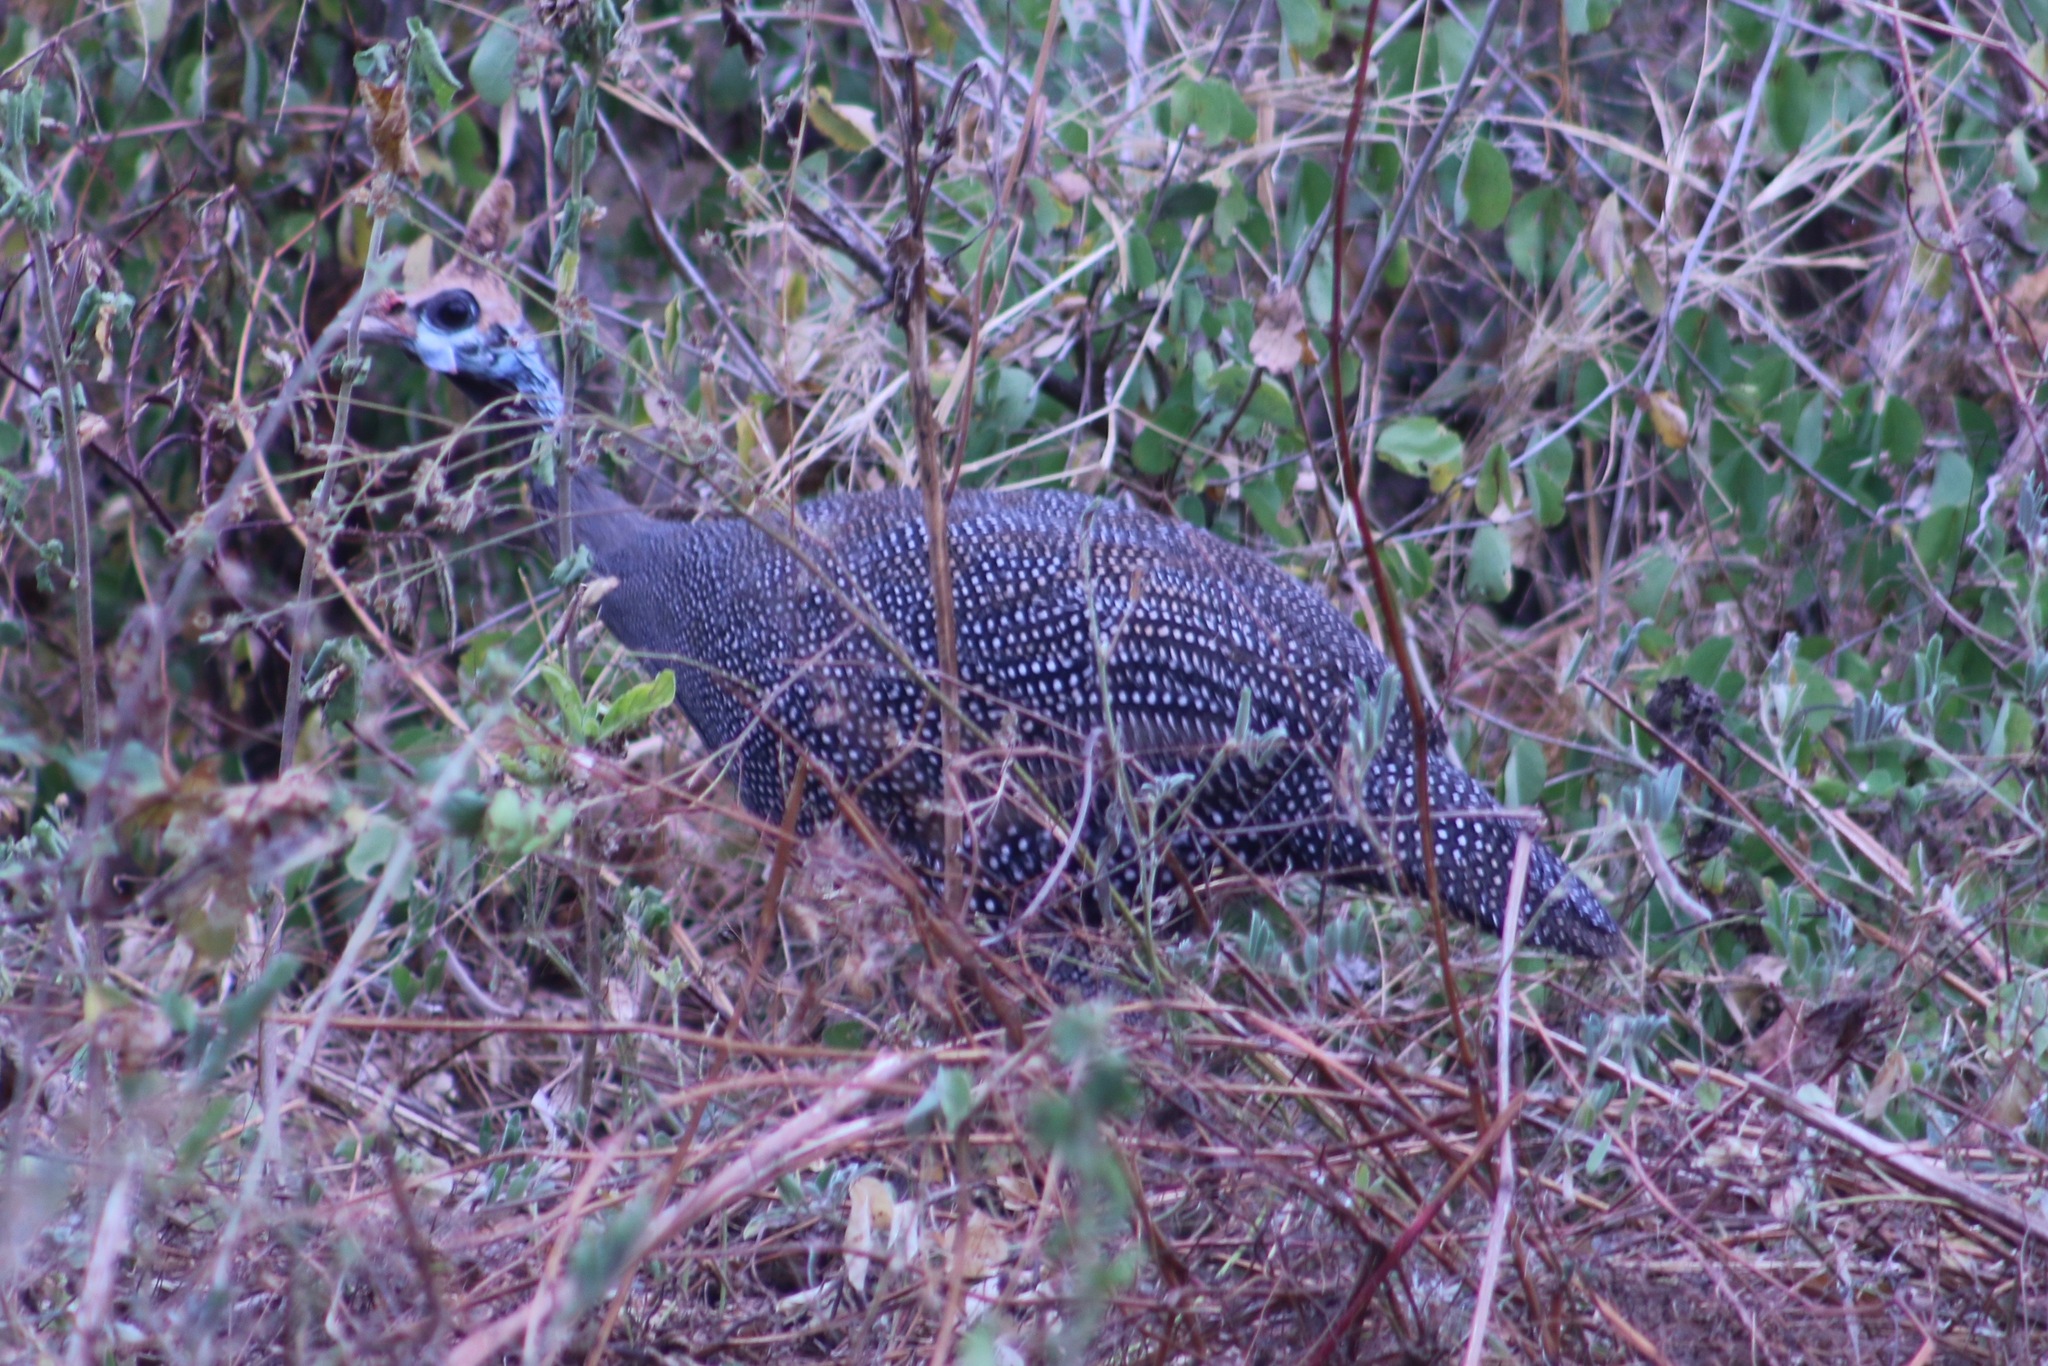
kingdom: Animalia
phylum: Chordata
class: Aves
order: Galliformes
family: Numididae
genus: Numida
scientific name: Numida meleagris
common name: Helmeted guineafowl
